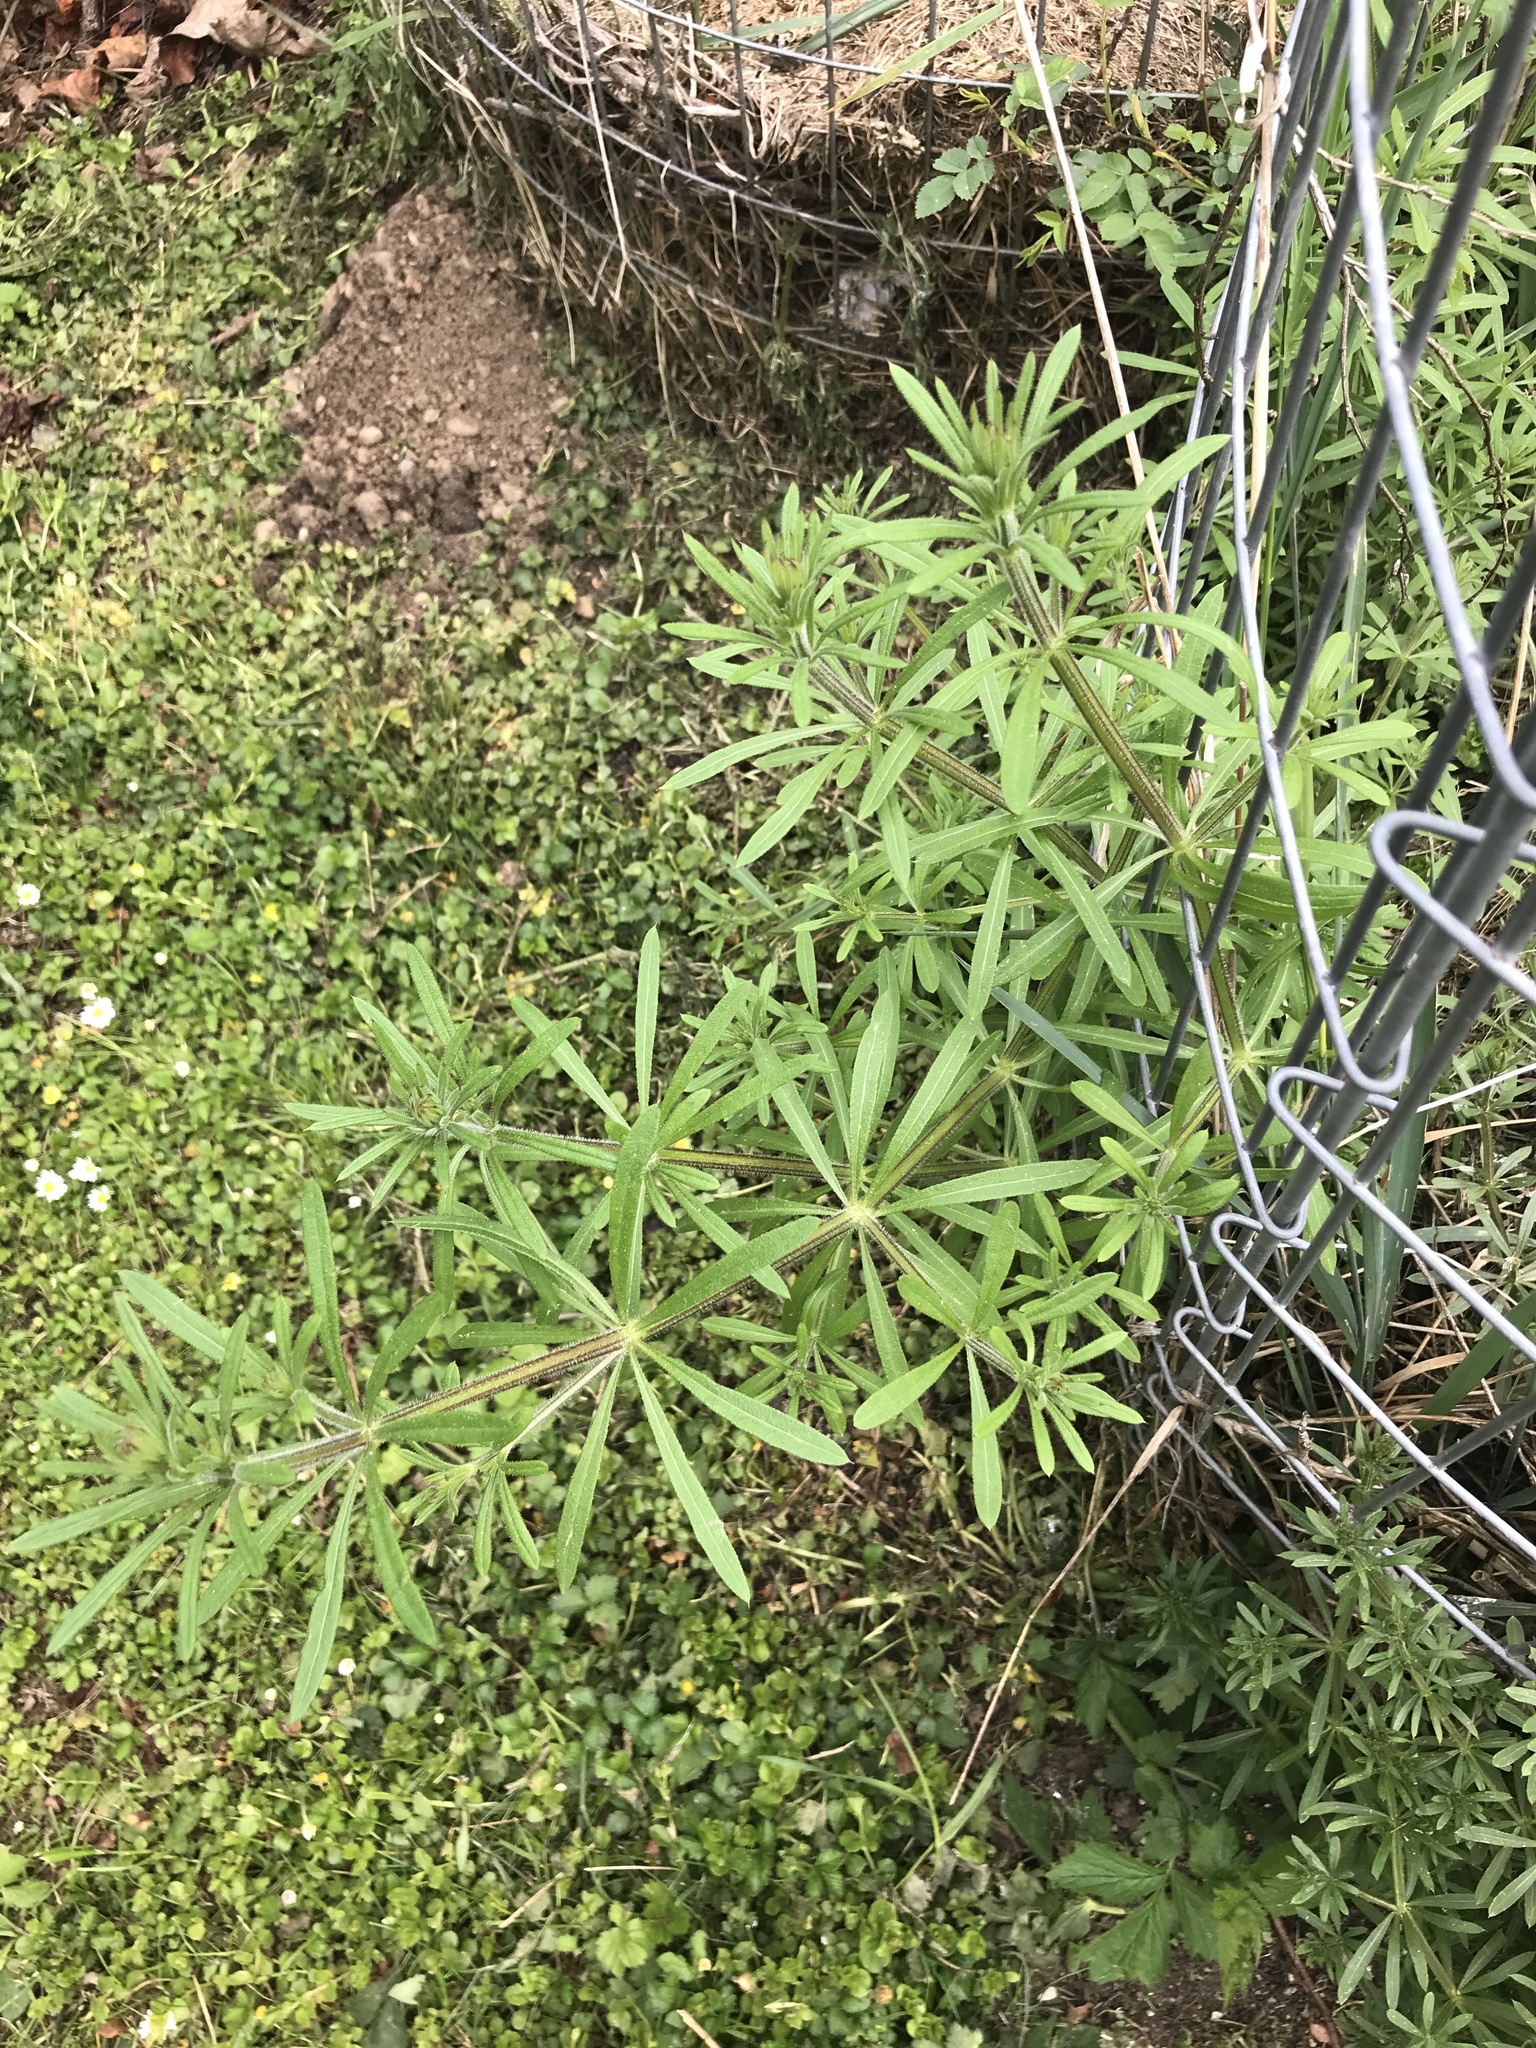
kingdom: Plantae
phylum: Tracheophyta
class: Magnoliopsida
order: Gentianales
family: Rubiaceae
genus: Galium
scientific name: Galium aparine
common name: Cleavers
